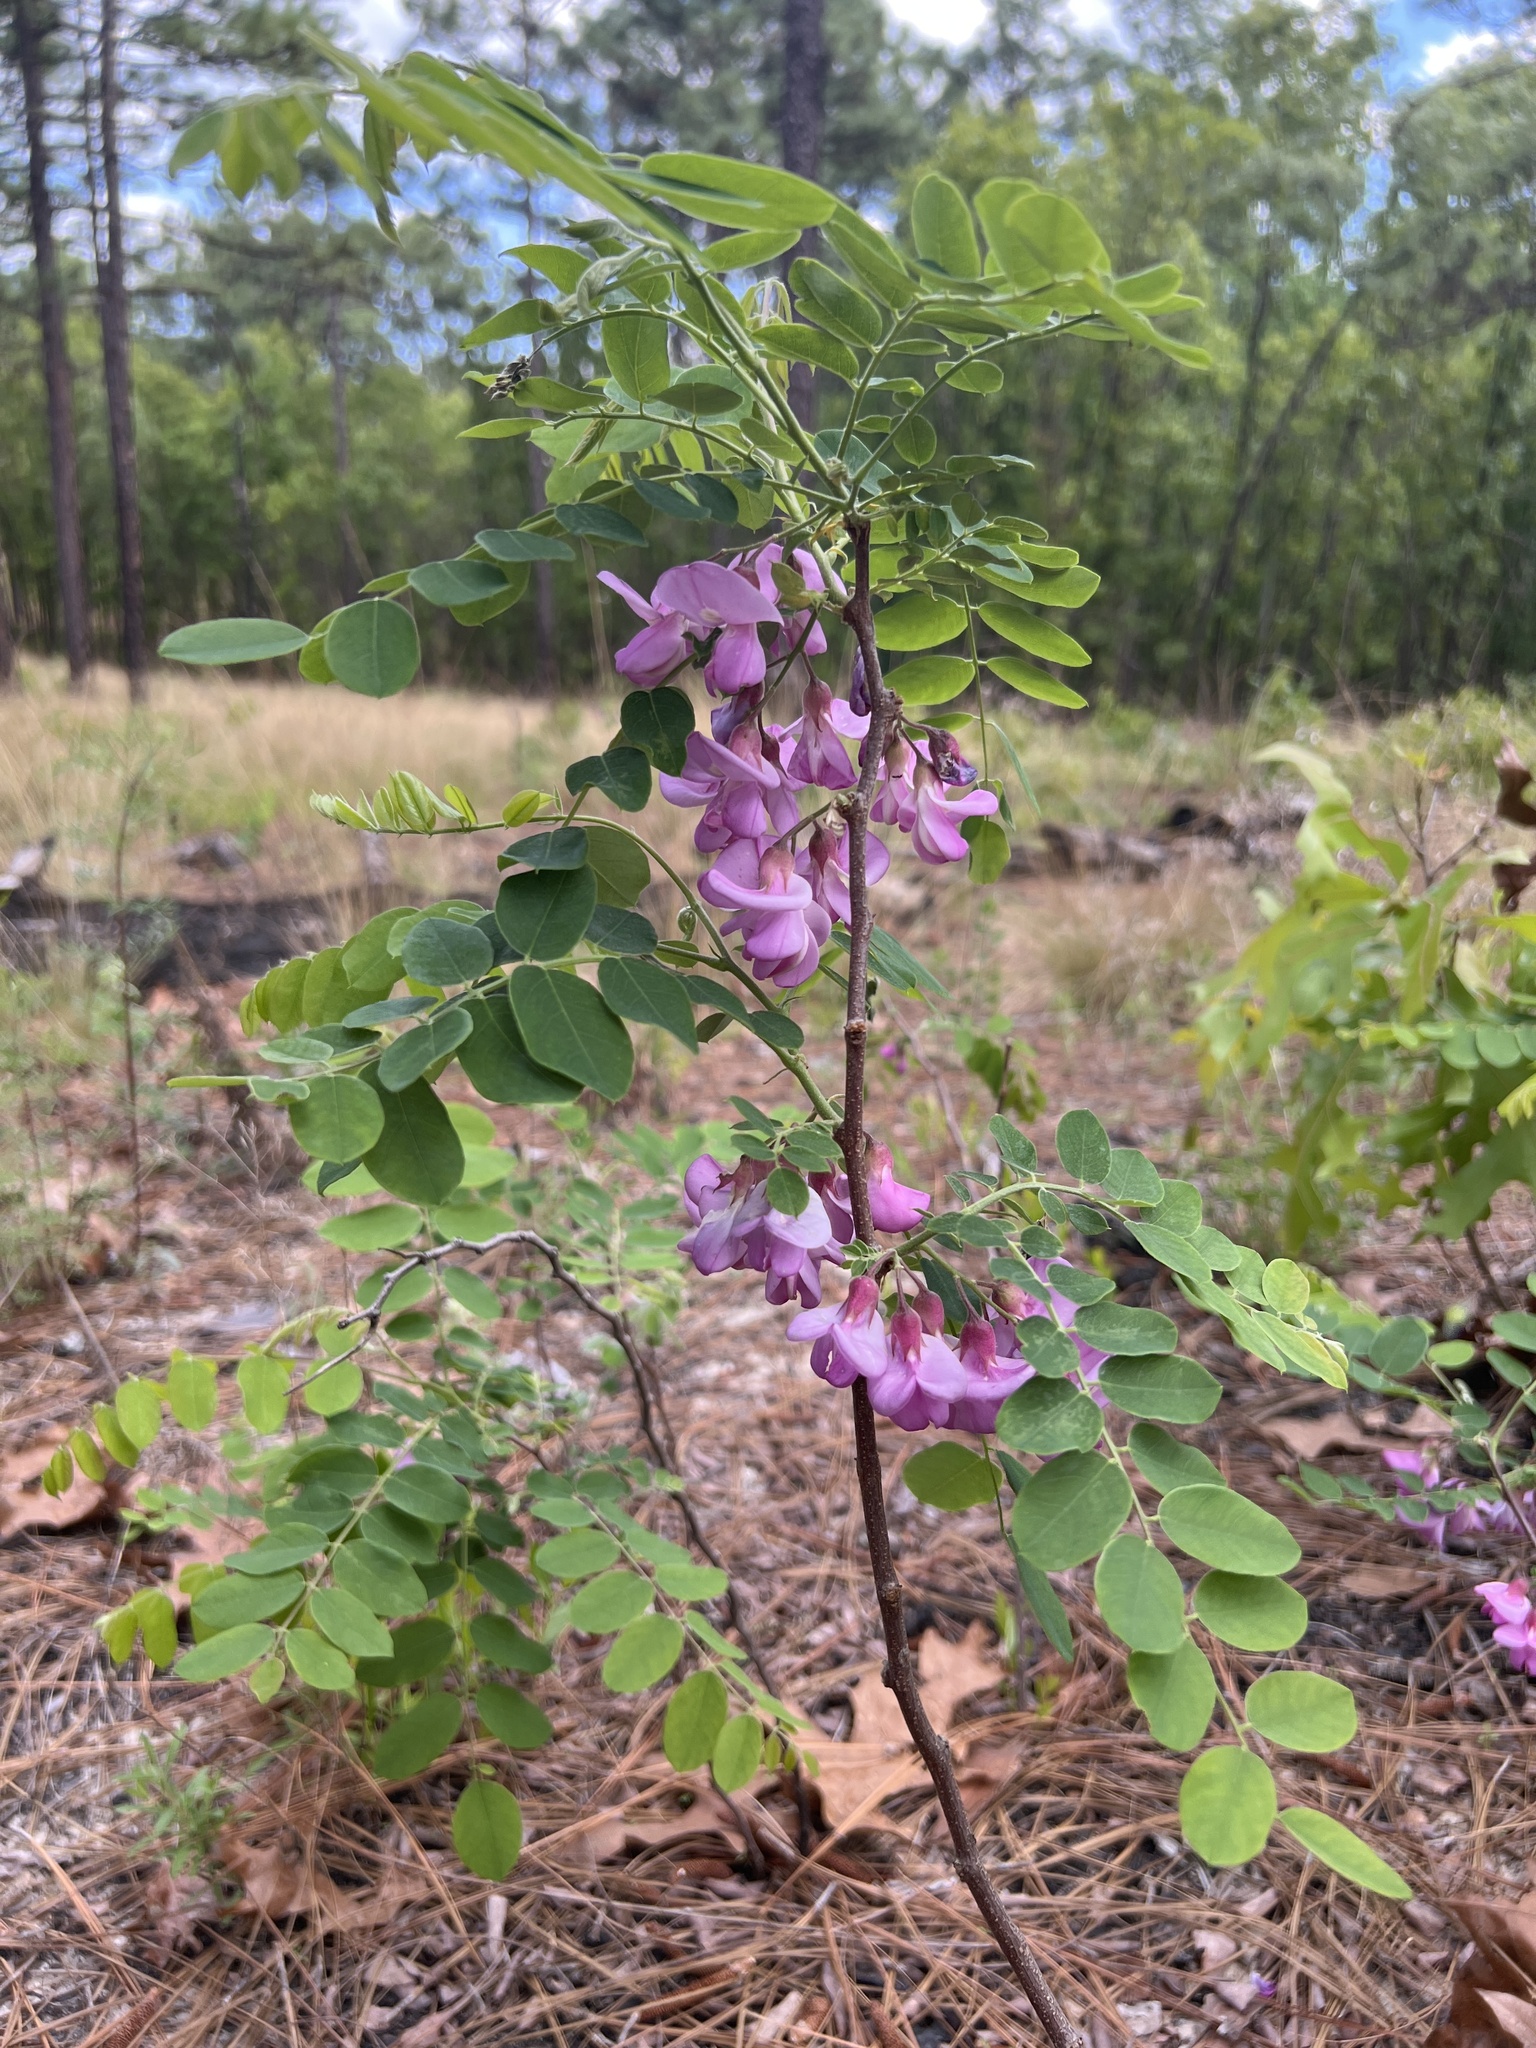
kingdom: Plantae
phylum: Tracheophyta
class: Magnoliopsida
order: Fabales
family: Fabaceae
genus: Robinia
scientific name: Robinia hispida
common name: Bristly locust
